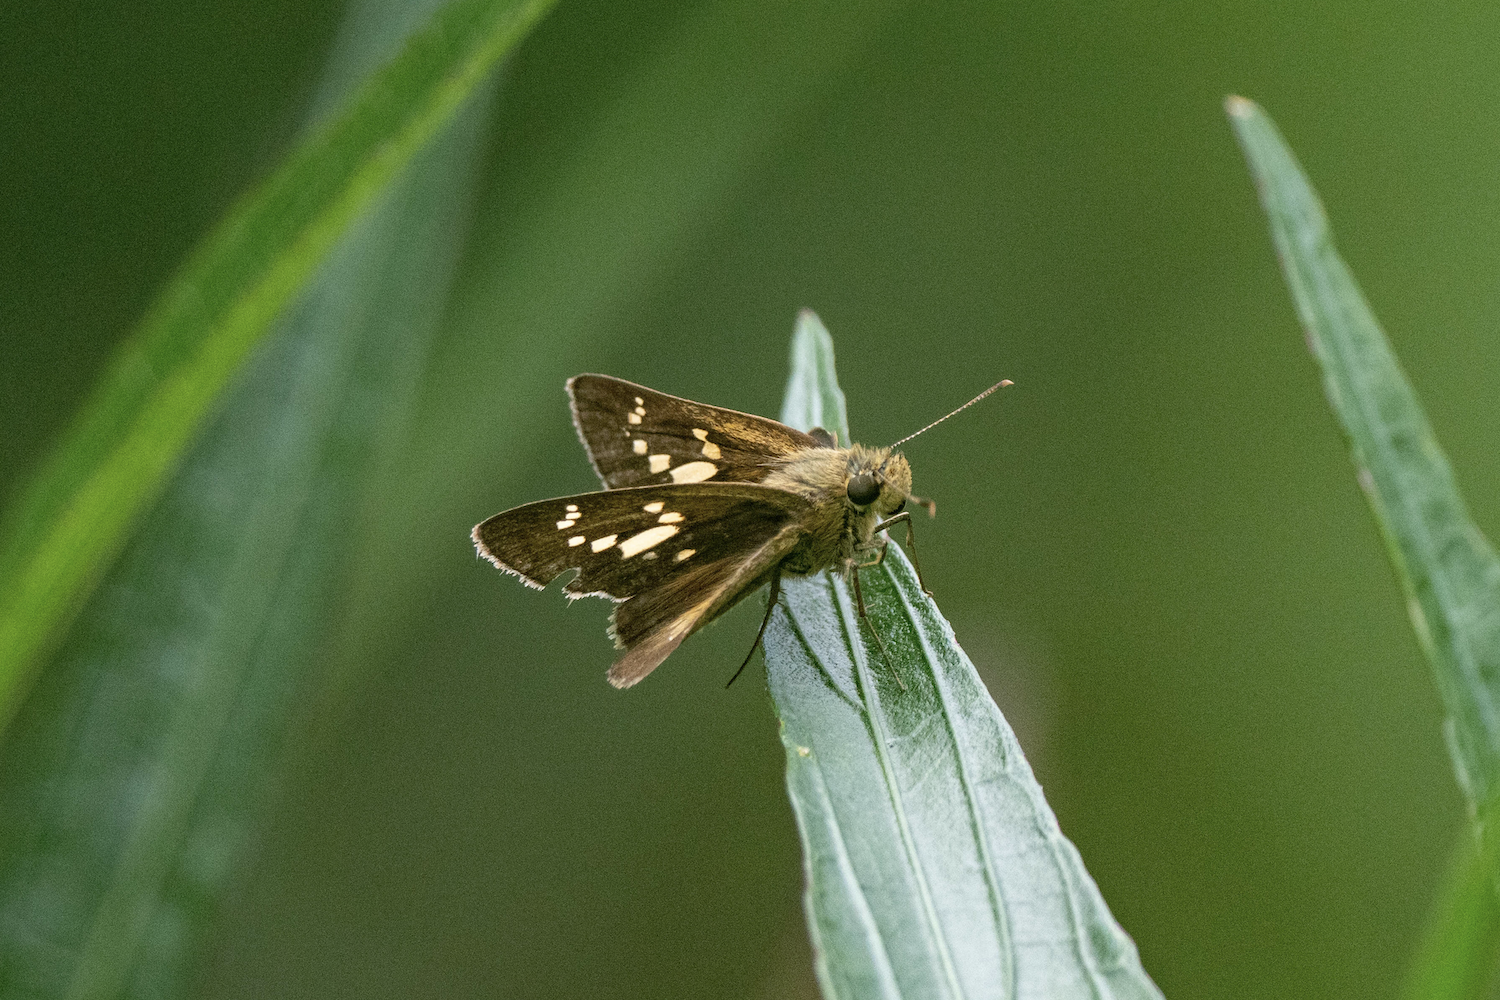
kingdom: Animalia
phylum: Arthropoda
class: Insecta
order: Lepidoptera
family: Hesperiidae
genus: Polytremis
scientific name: Polytremis lubricans
